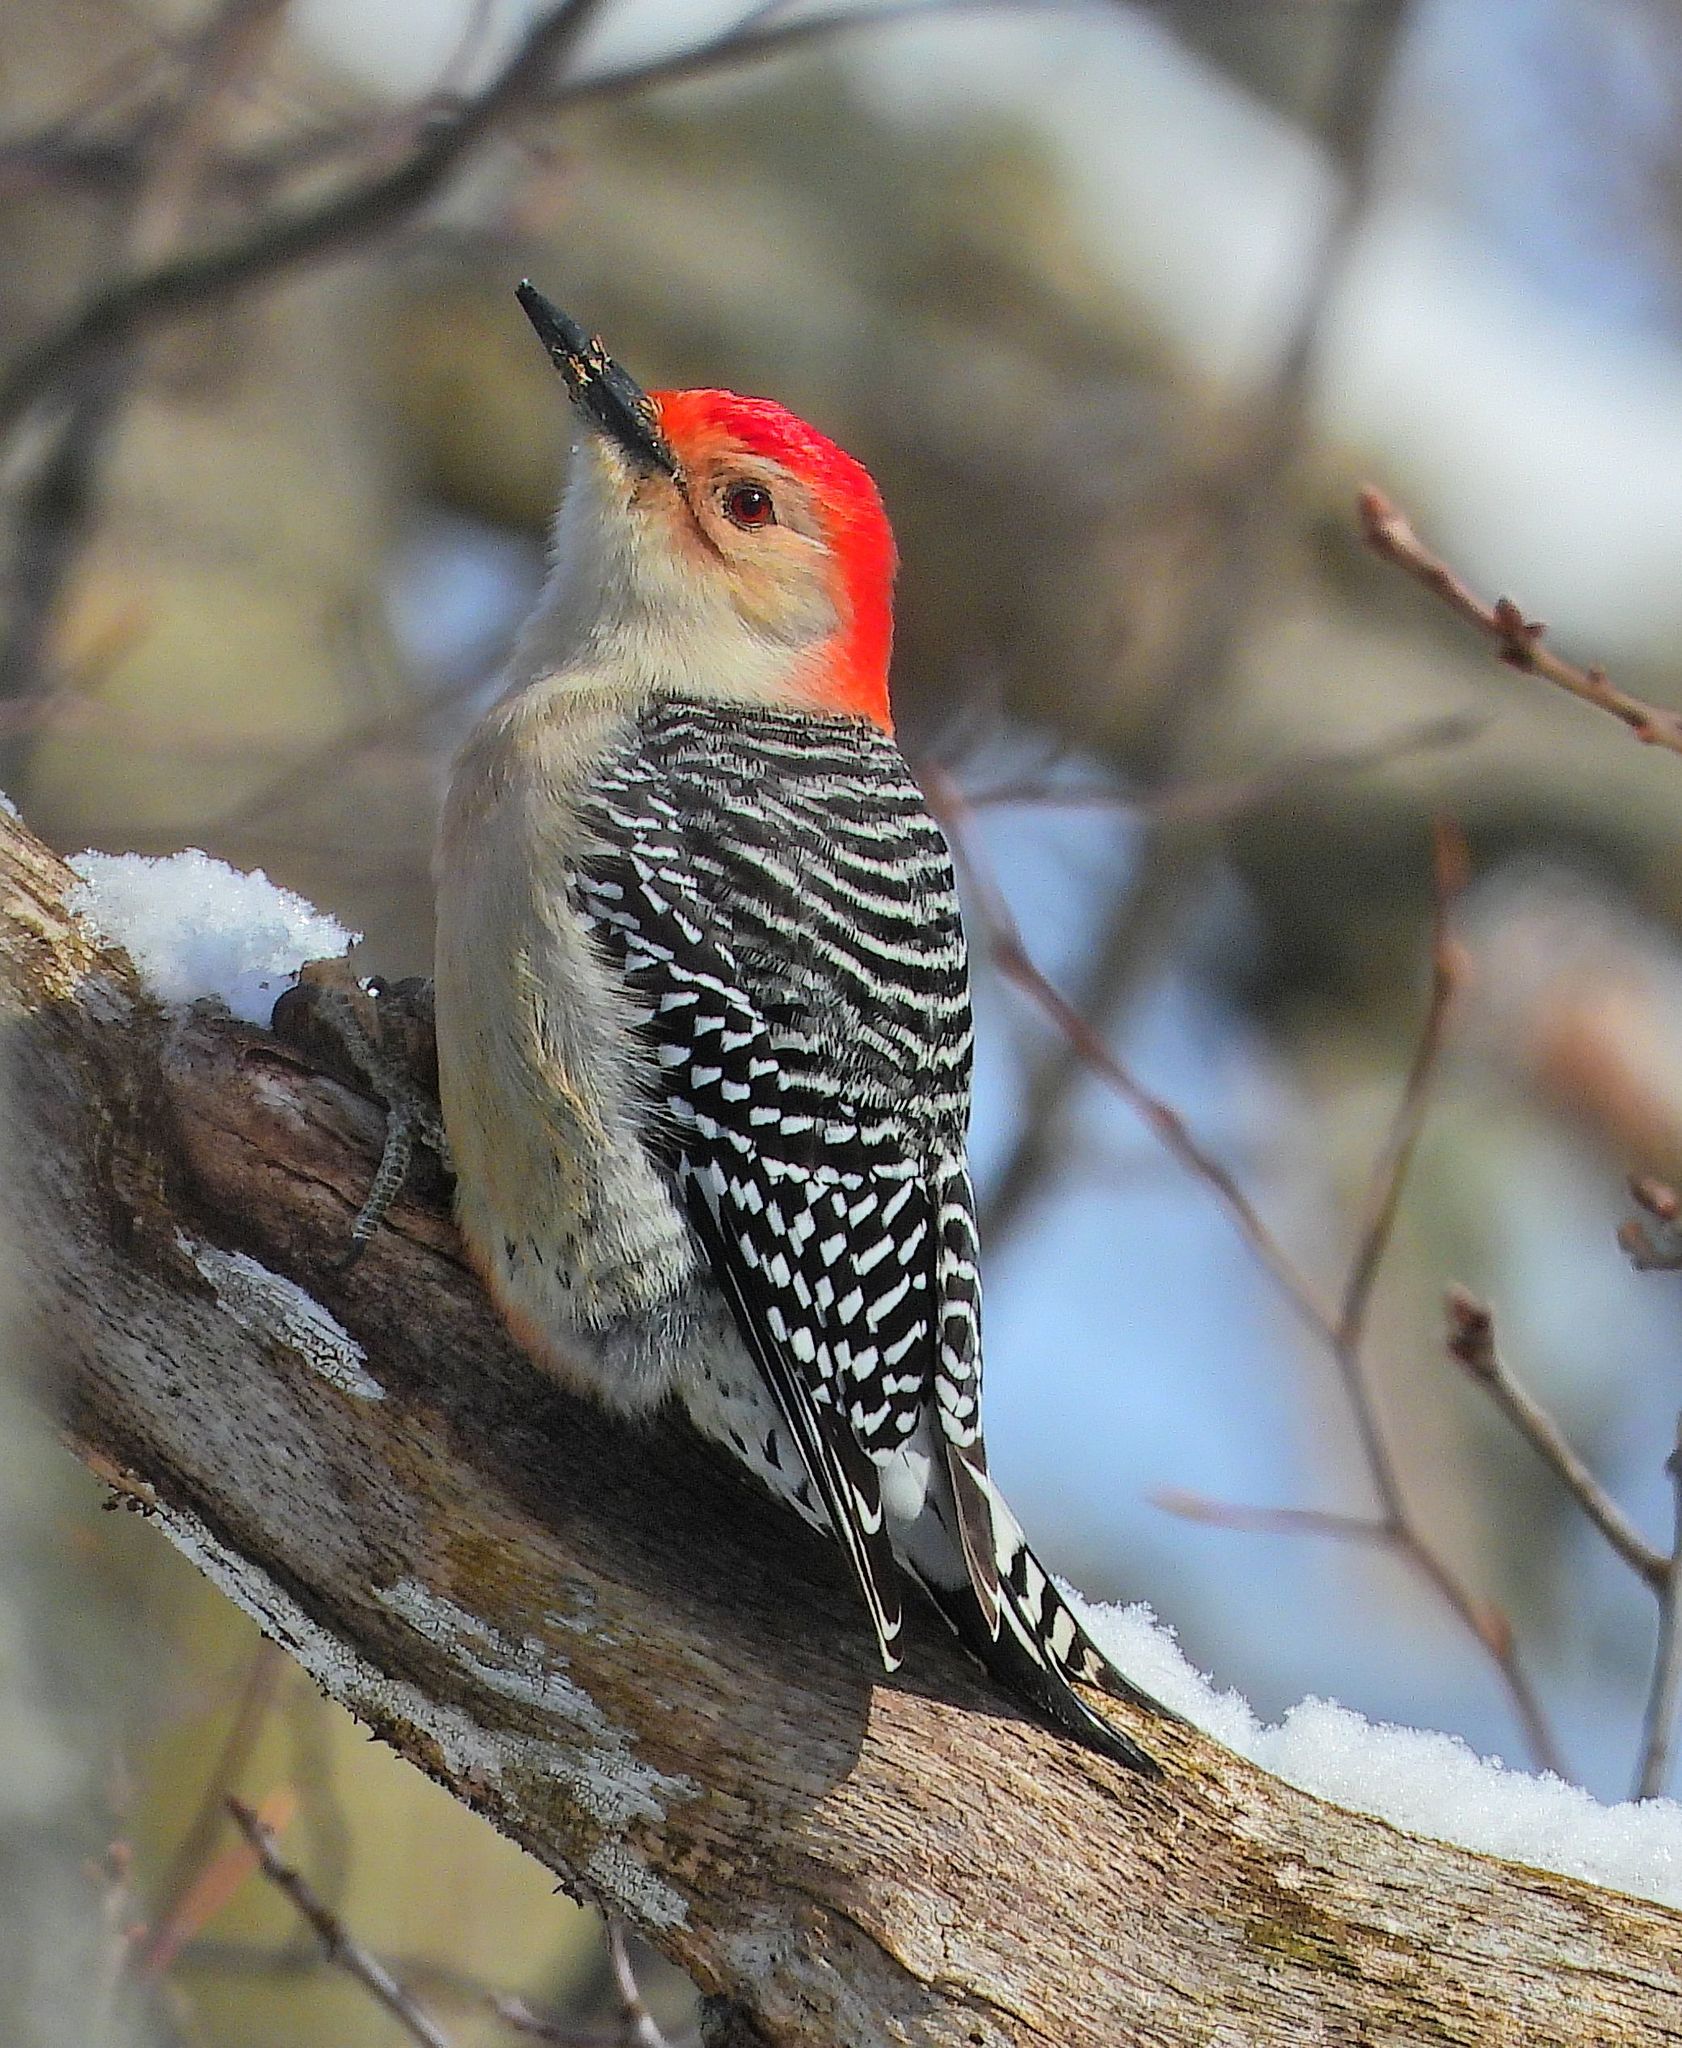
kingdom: Animalia
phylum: Chordata
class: Aves
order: Piciformes
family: Picidae
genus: Melanerpes
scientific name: Melanerpes carolinus
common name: Red-bellied woodpecker
